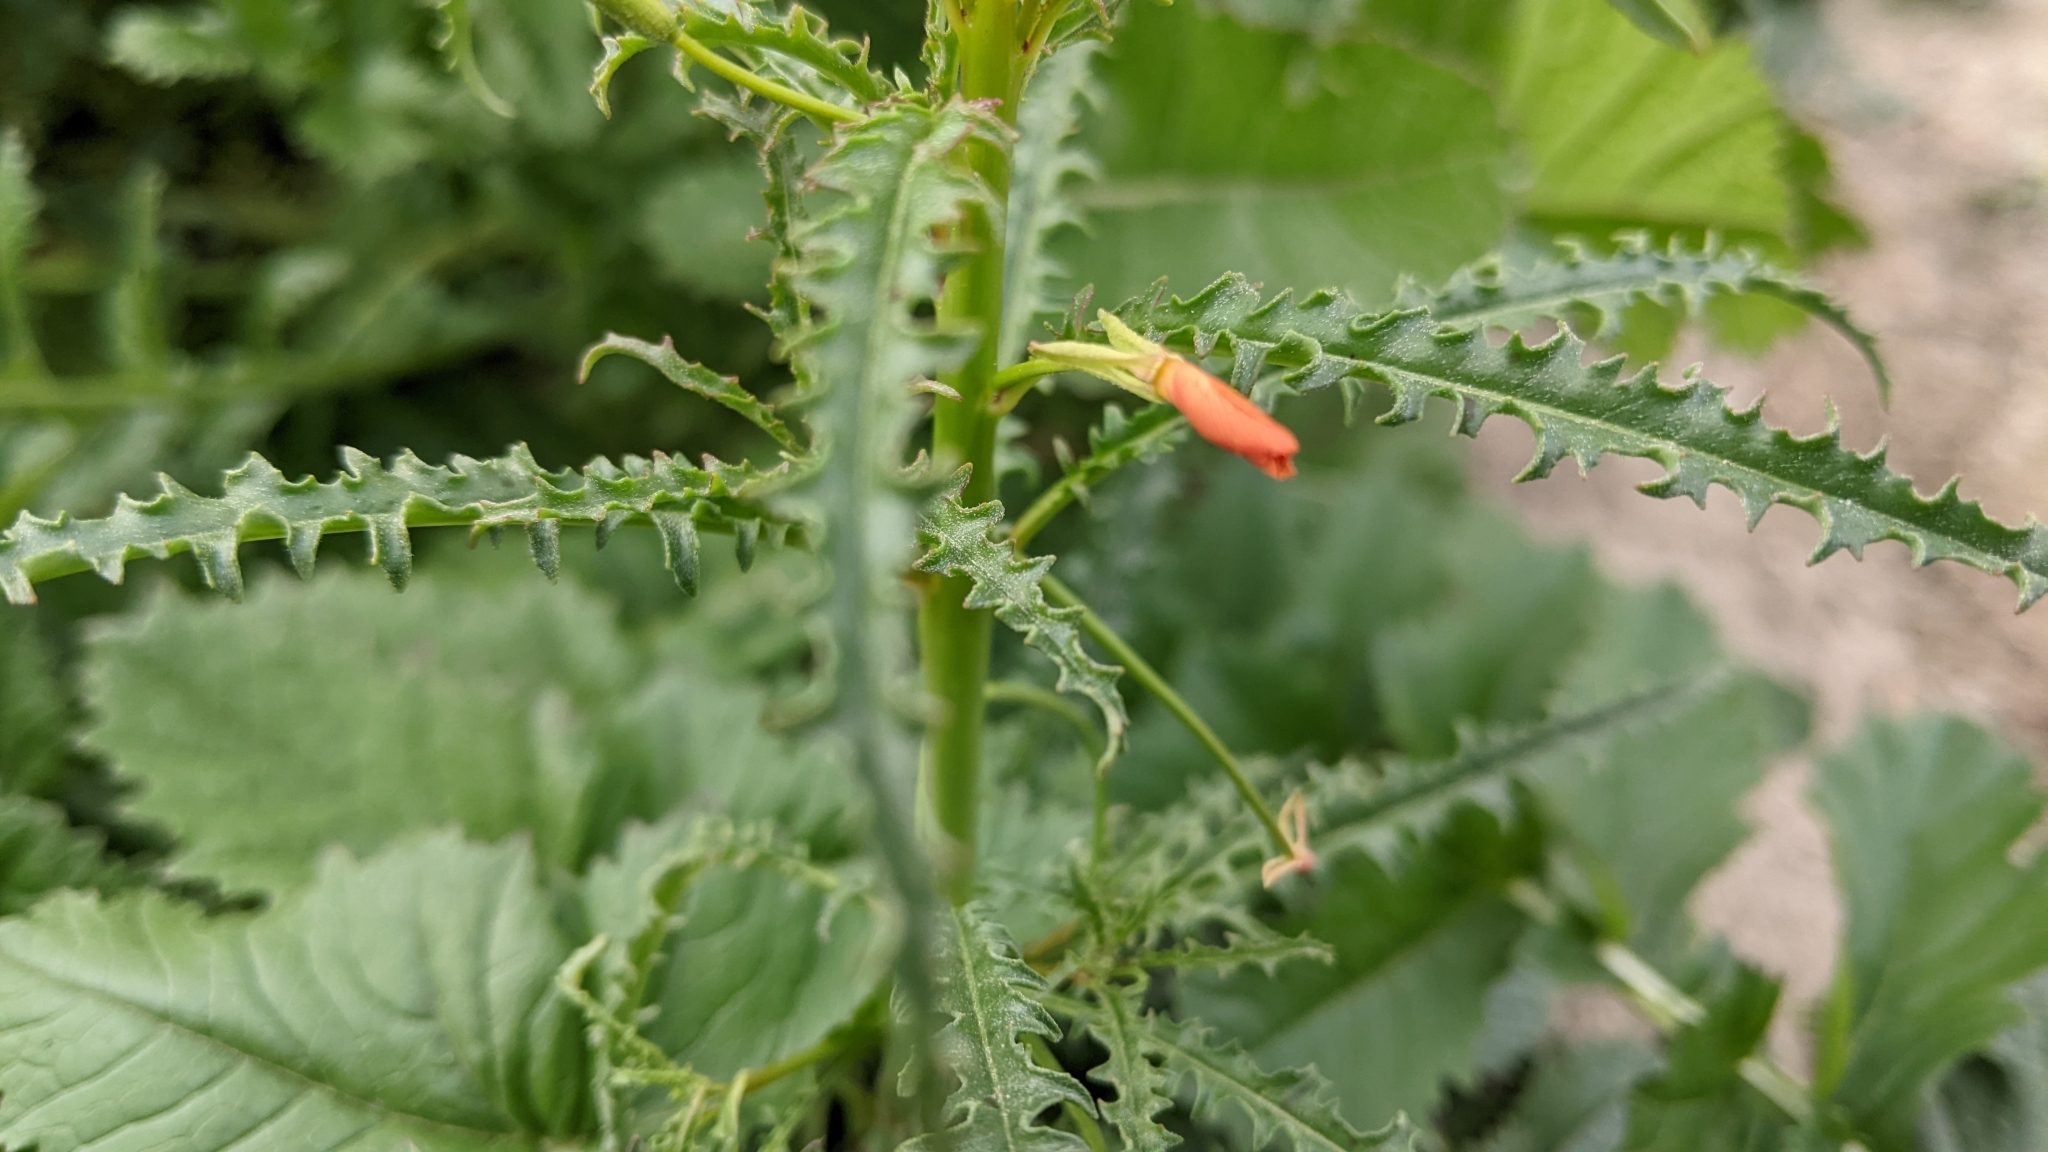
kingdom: Plantae
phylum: Tracheophyta
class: Magnoliopsida
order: Myrtales
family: Onagraceae
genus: Eulobus
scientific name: Eulobus californicus
